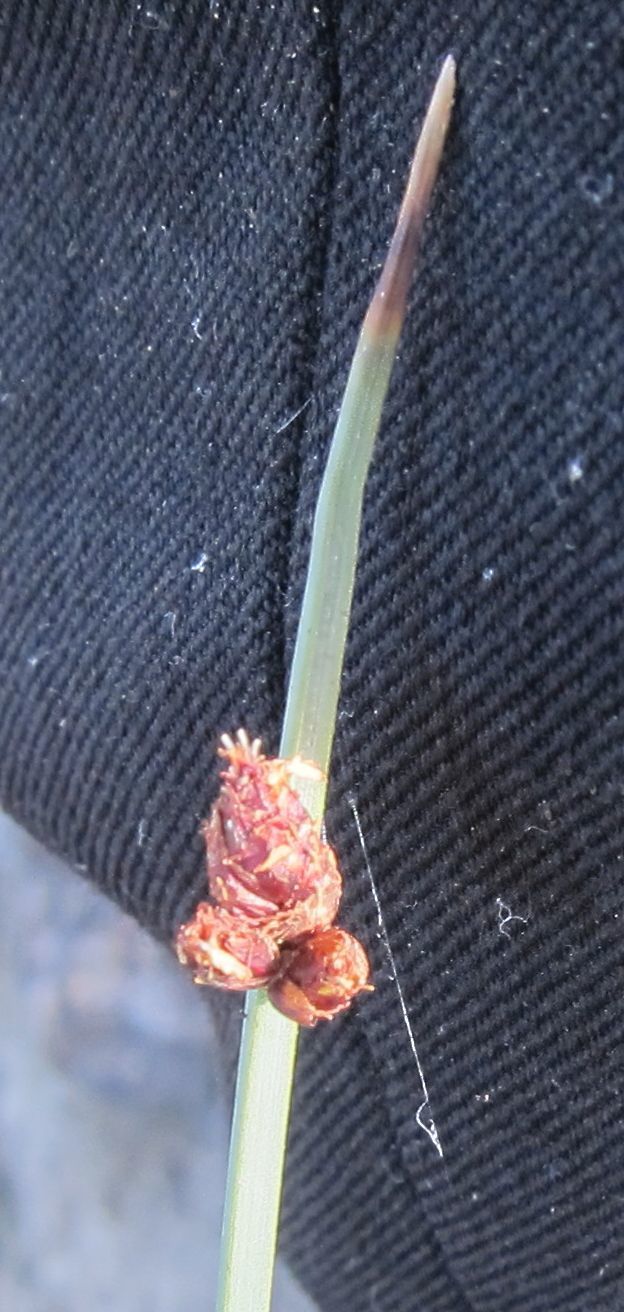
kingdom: Plantae
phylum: Tracheophyta
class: Liliopsida
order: Poales
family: Cyperaceae
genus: Schoenoplectus
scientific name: Schoenoplectus pungens
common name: Sharp club-rush
